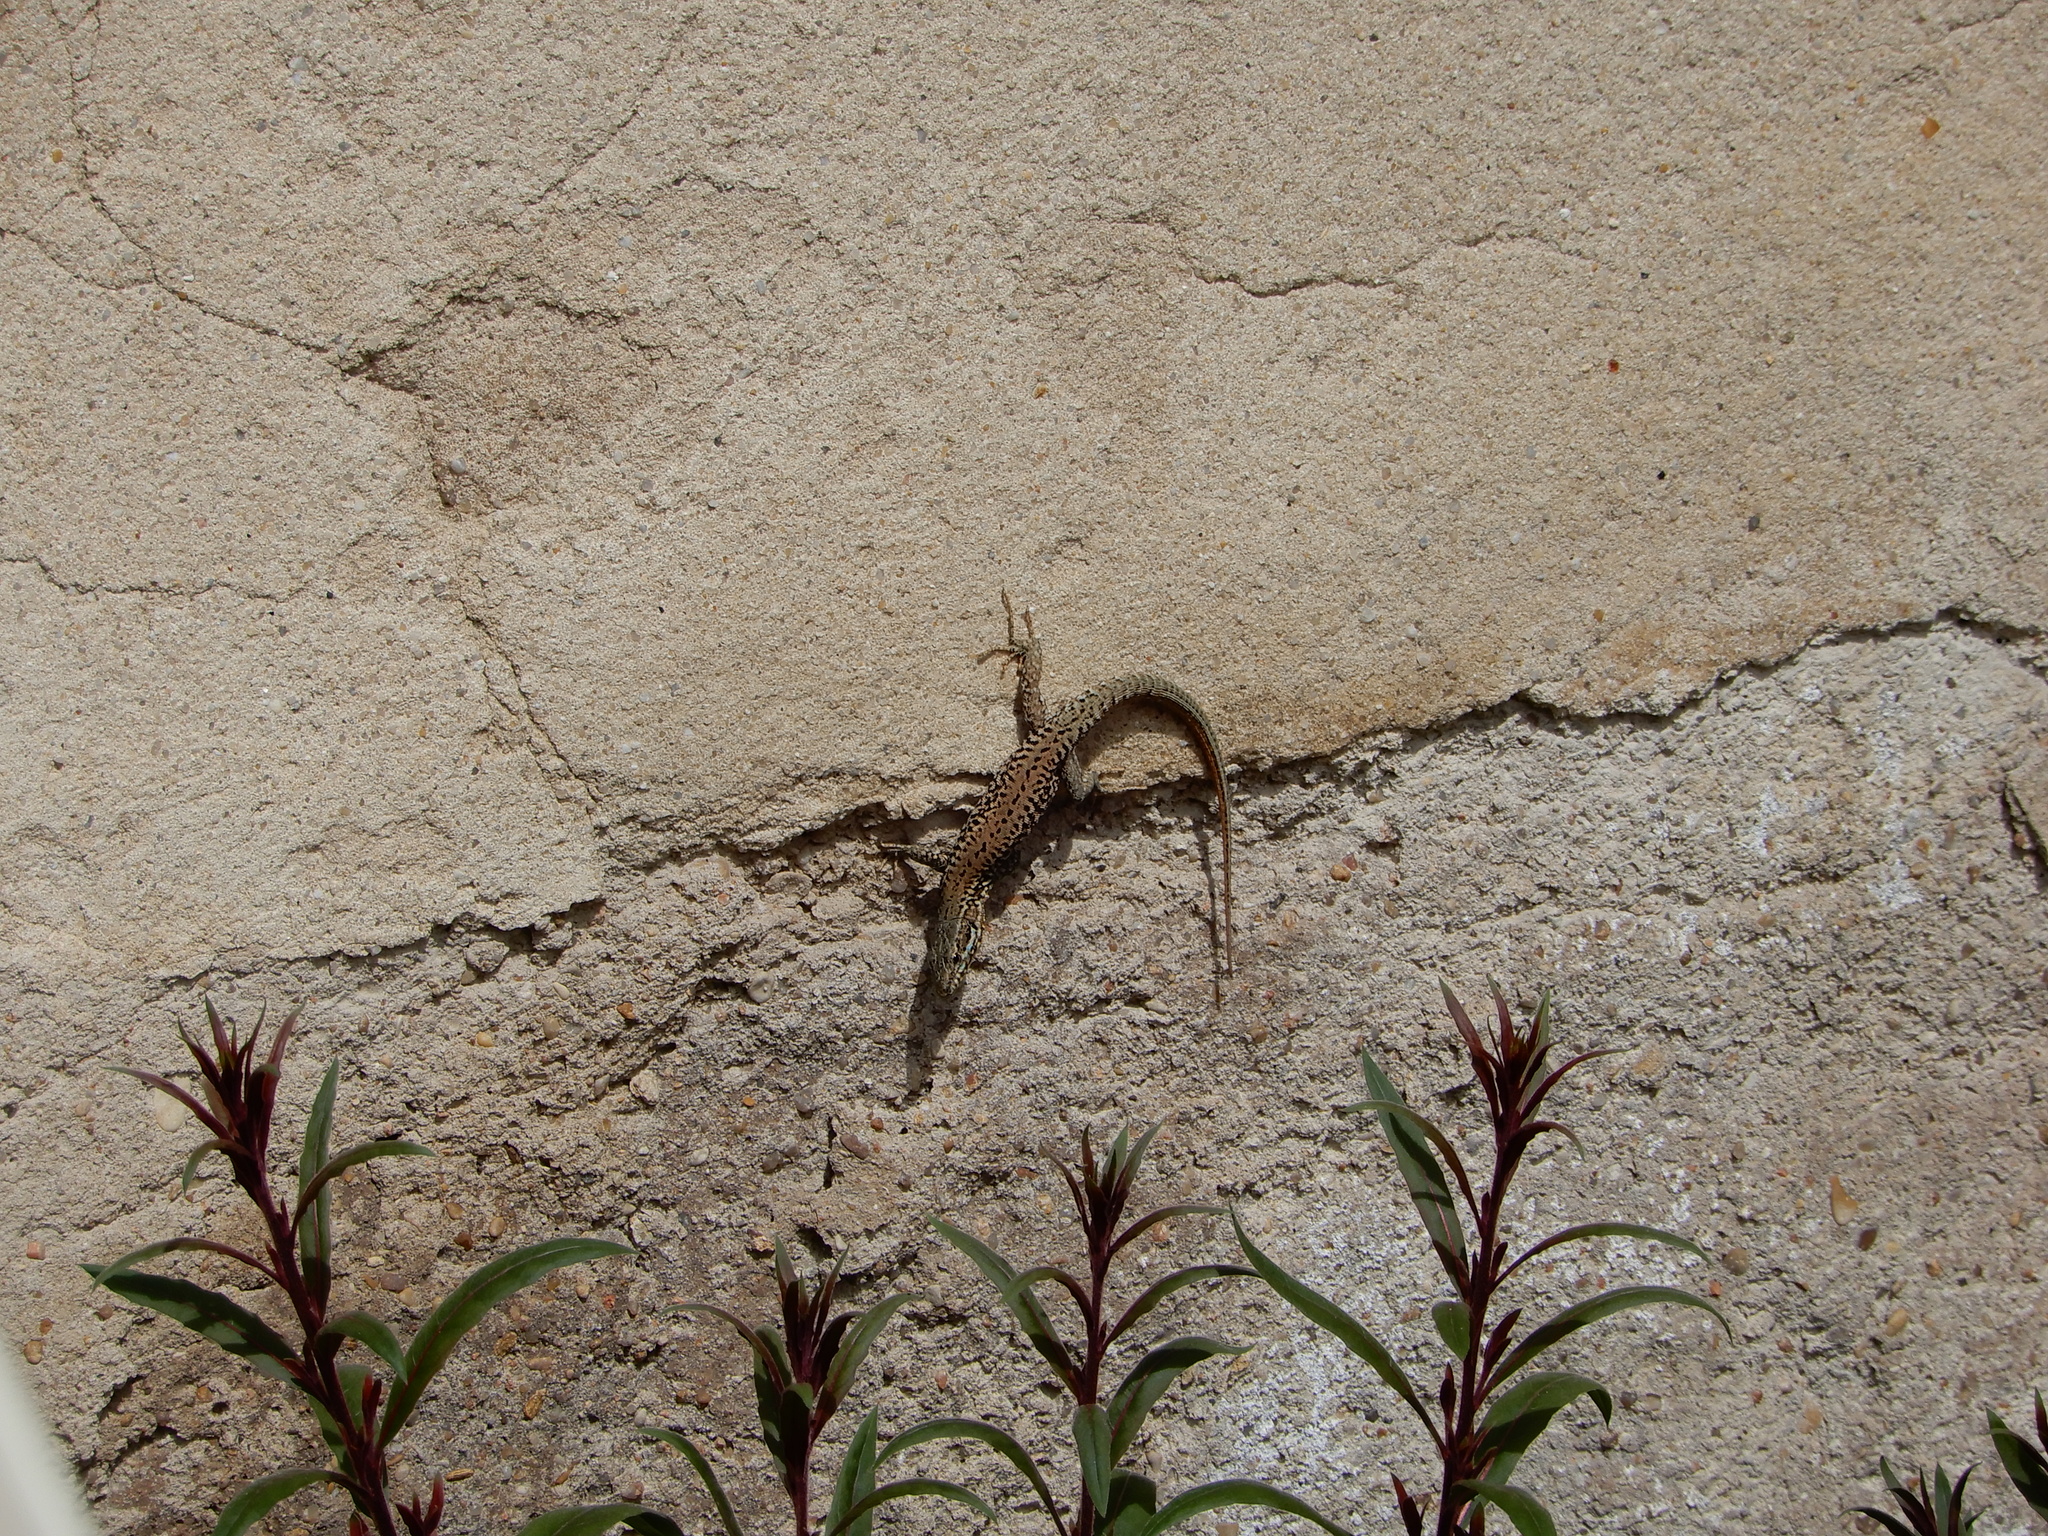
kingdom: Animalia
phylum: Chordata
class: Squamata
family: Lacertidae
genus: Podarcis
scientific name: Podarcis muralis
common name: Common wall lizard
